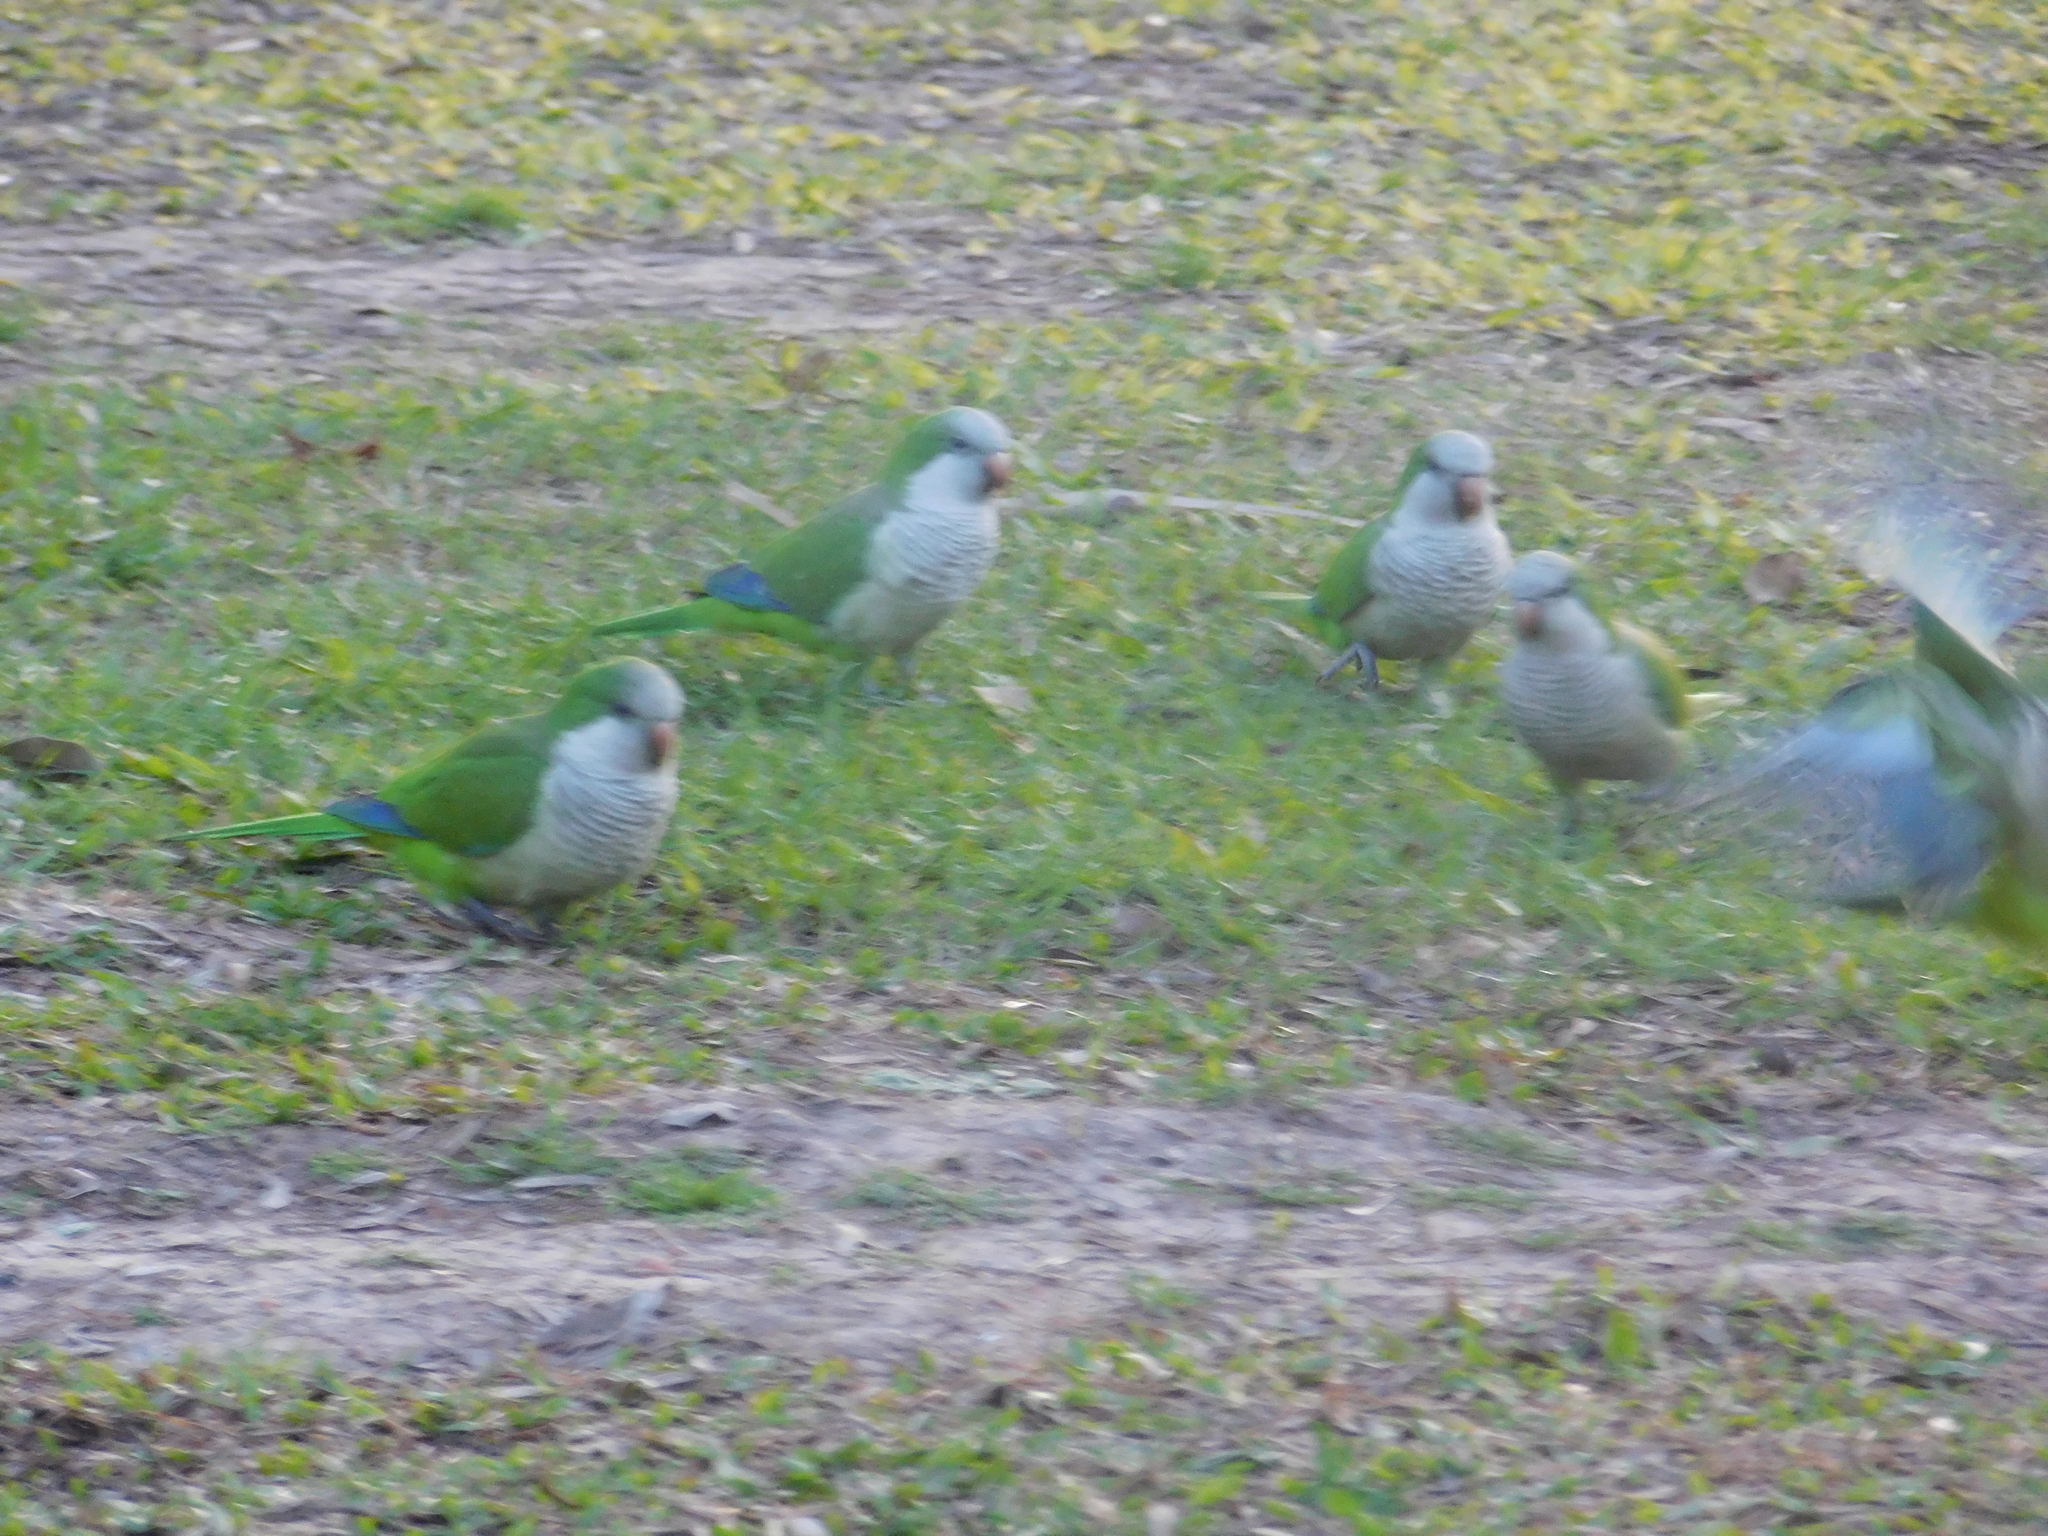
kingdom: Animalia
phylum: Chordata
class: Aves
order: Psittaciformes
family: Psittacidae
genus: Myiopsitta
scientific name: Myiopsitta monachus
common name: Monk parakeet
